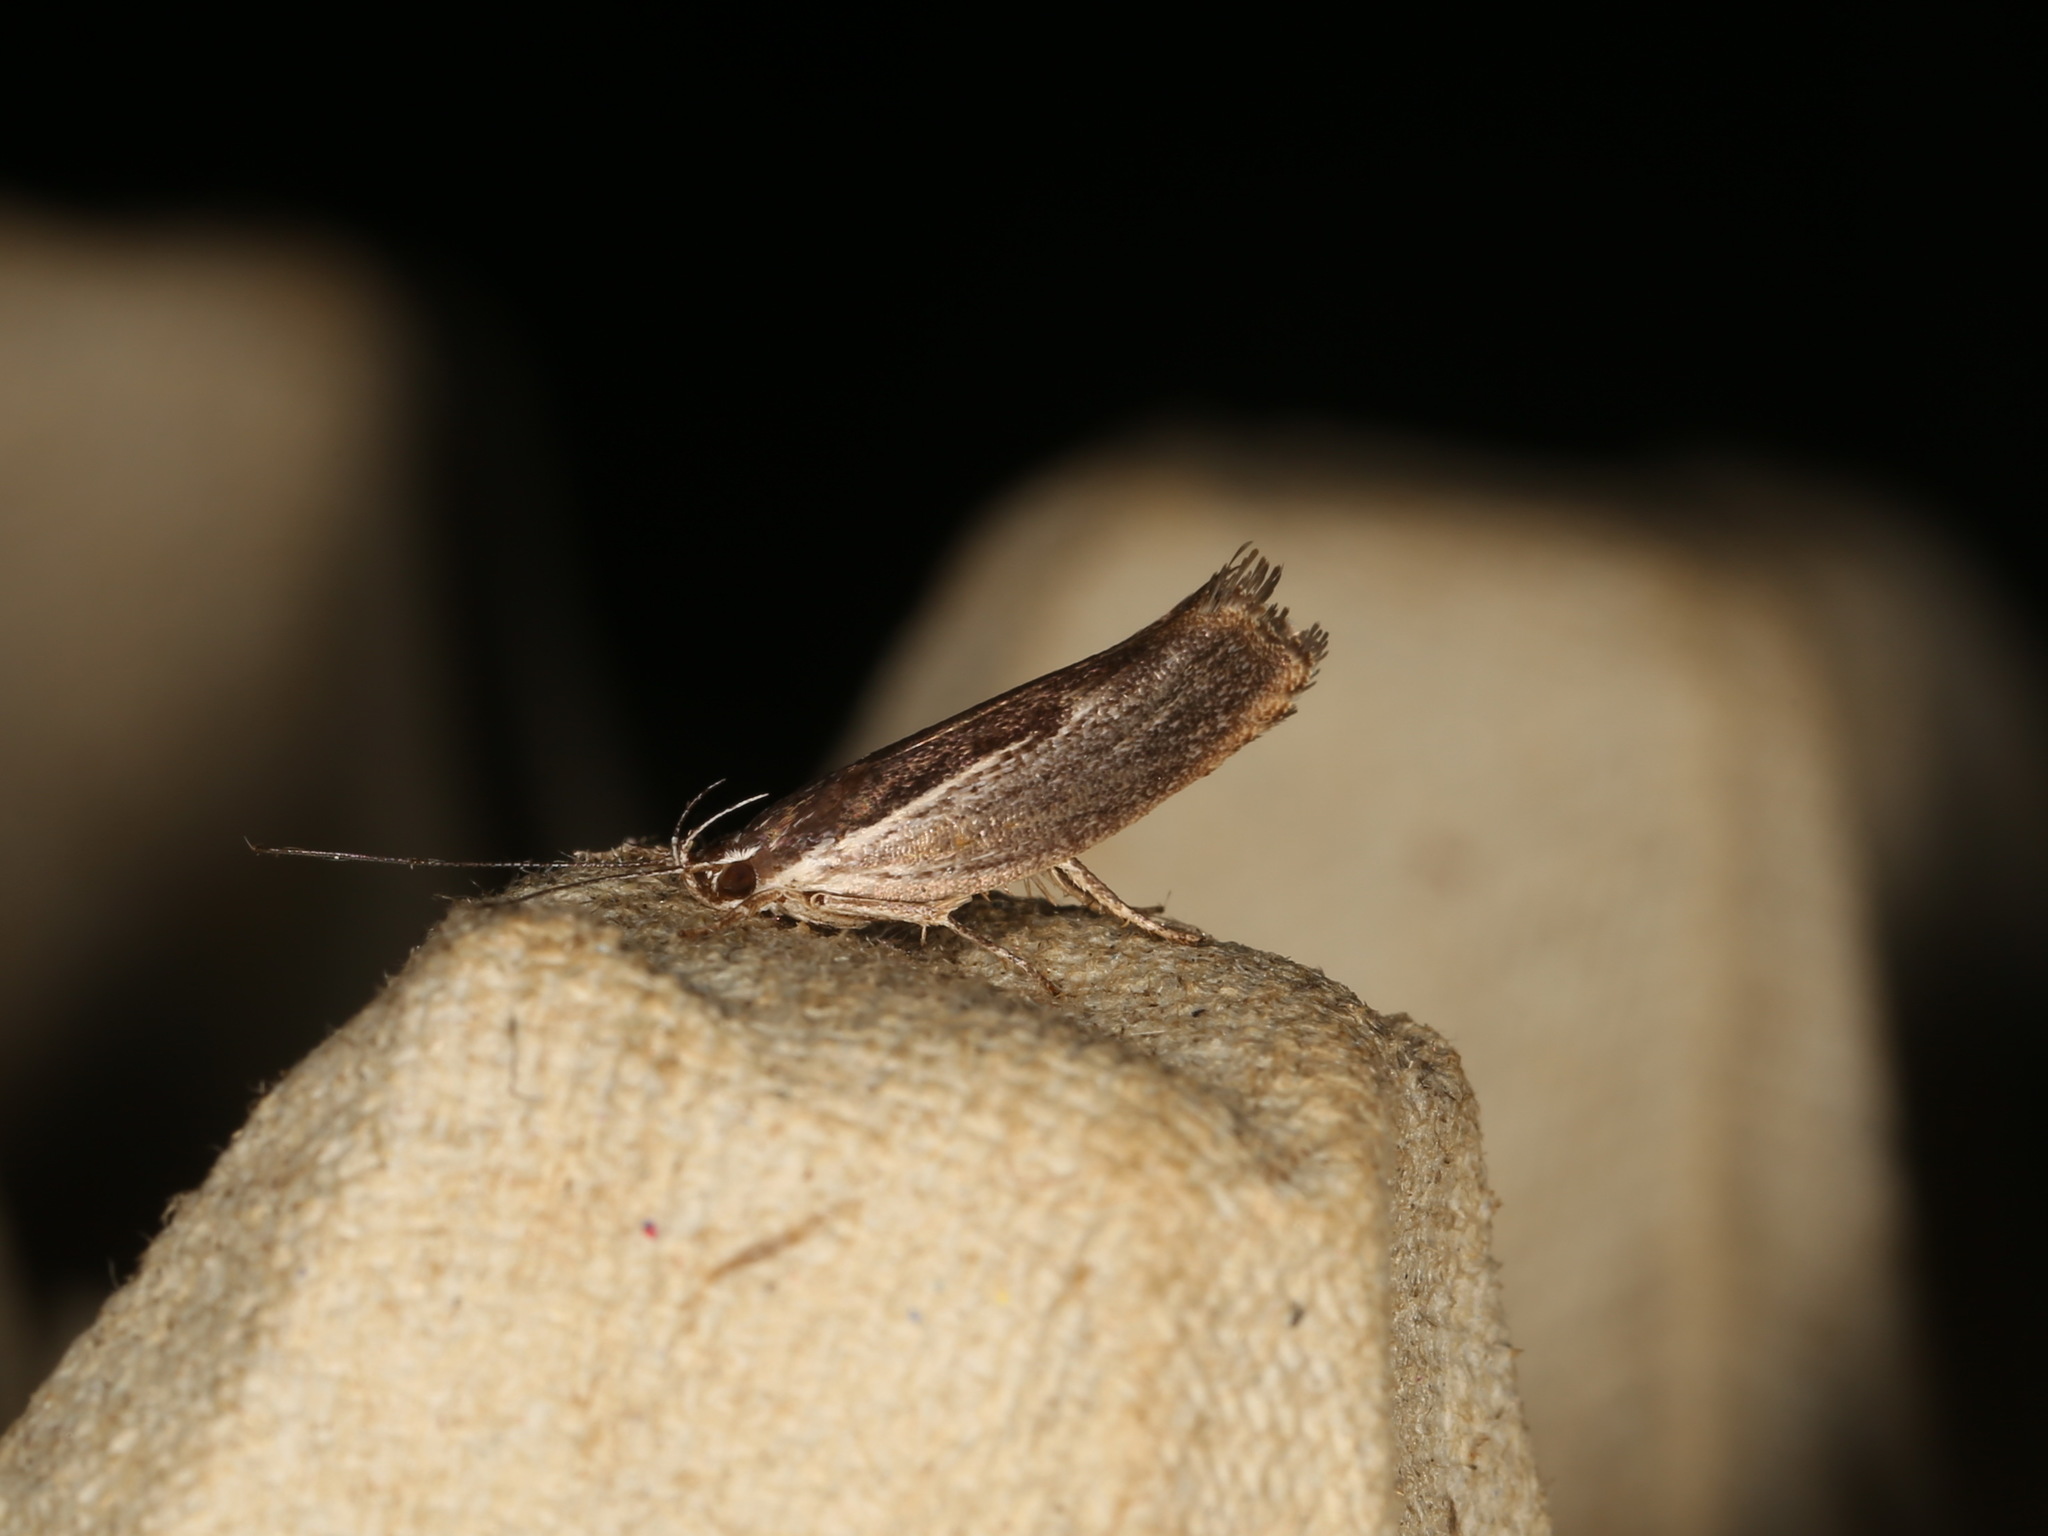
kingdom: Animalia
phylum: Arthropoda
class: Insecta
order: Lepidoptera
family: Xyloryctidae
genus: Phthonerodes
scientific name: Phthonerodes peridela
